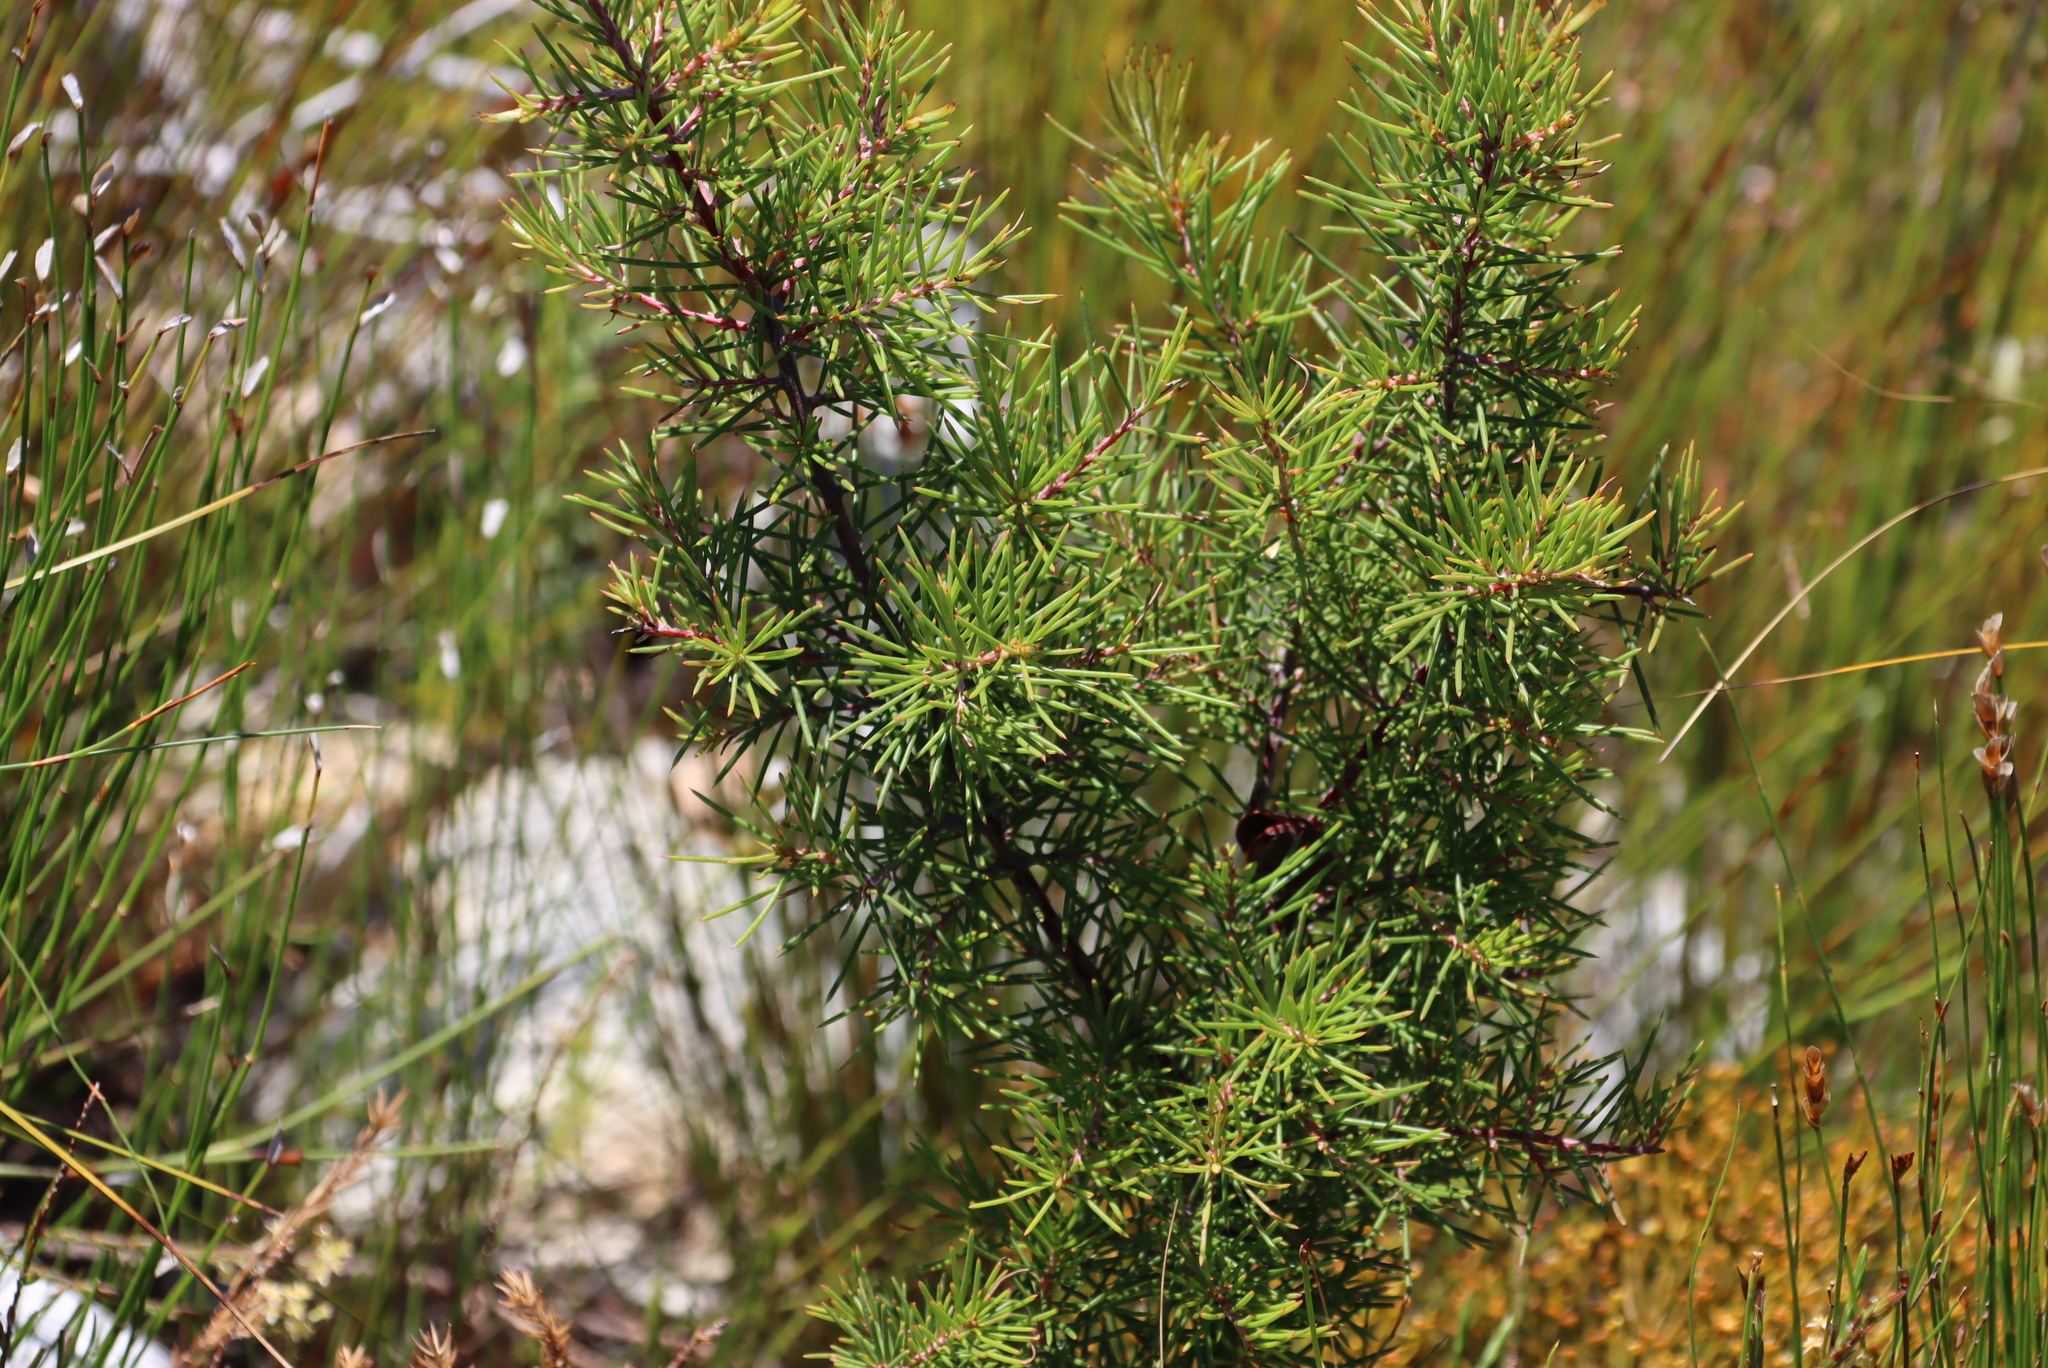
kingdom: Plantae
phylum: Tracheophyta
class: Magnoliopsida
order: Proteales
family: Proteaceae
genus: Hakea
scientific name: Hakea sericea
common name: Needle bush
